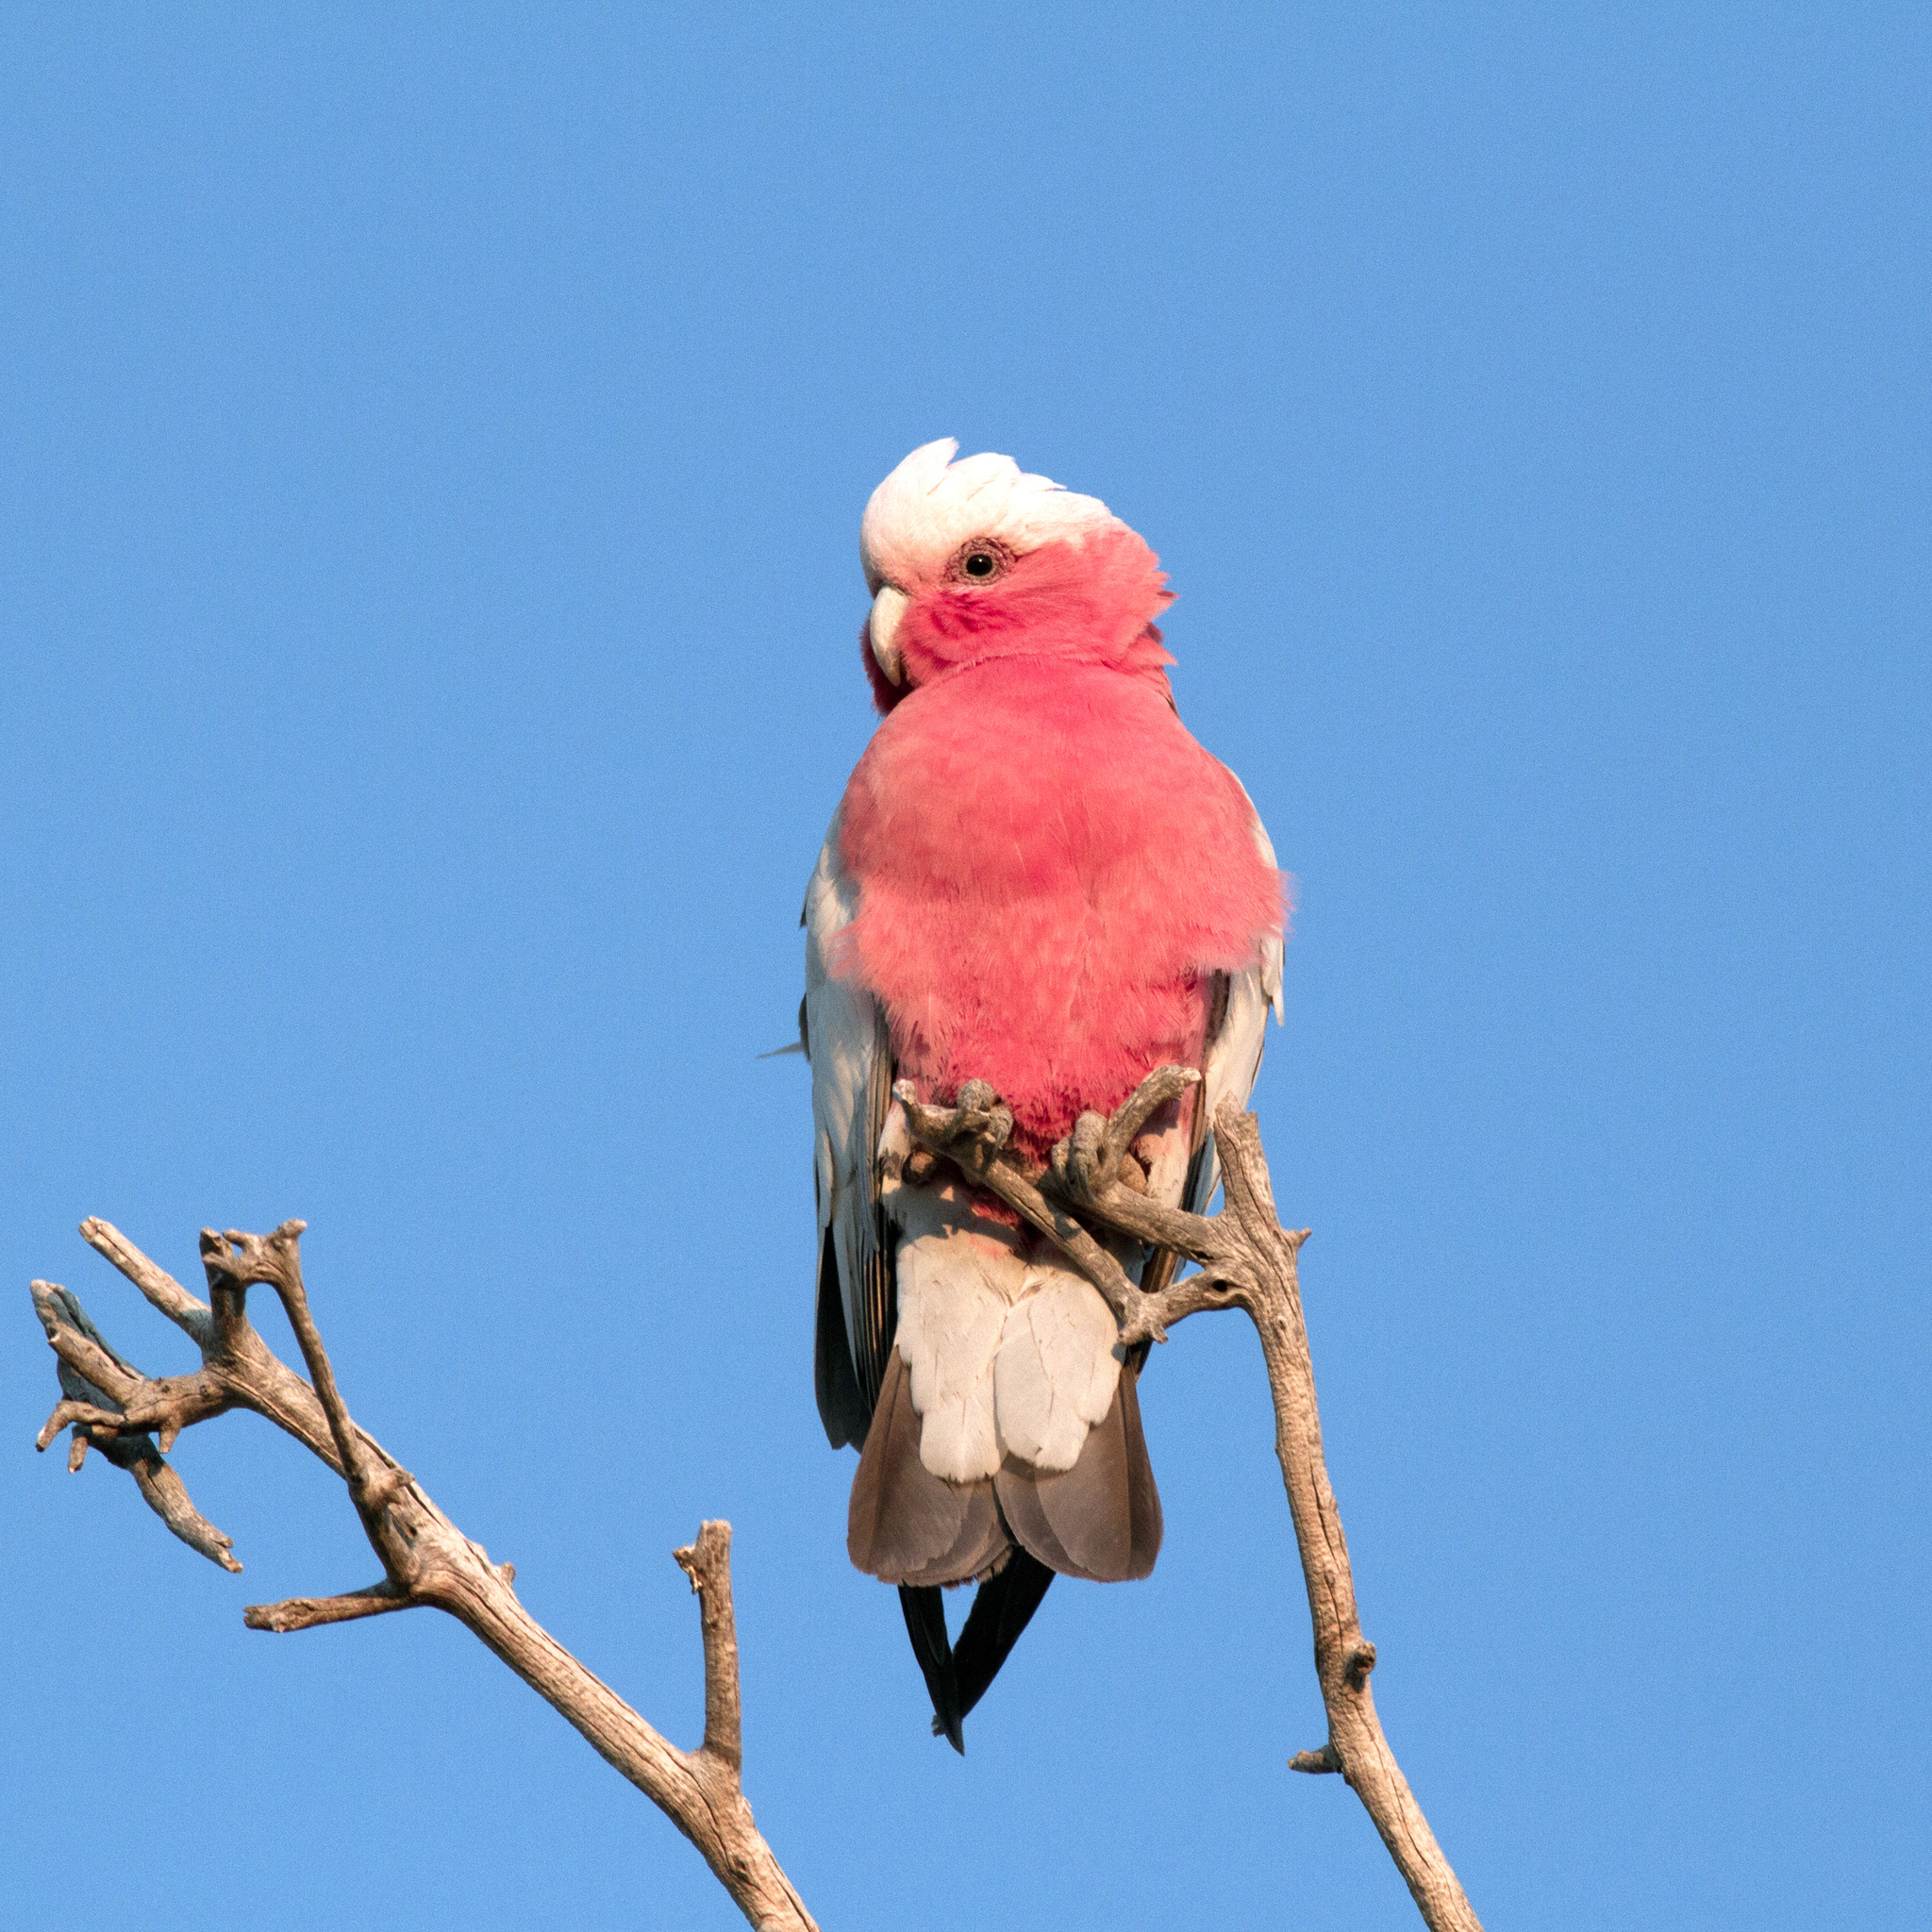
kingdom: Animalia
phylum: Chordata
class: Aves
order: Psittaciformes
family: Psittacidae
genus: Eolophus
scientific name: Eolophus roseicapilla
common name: Galah
